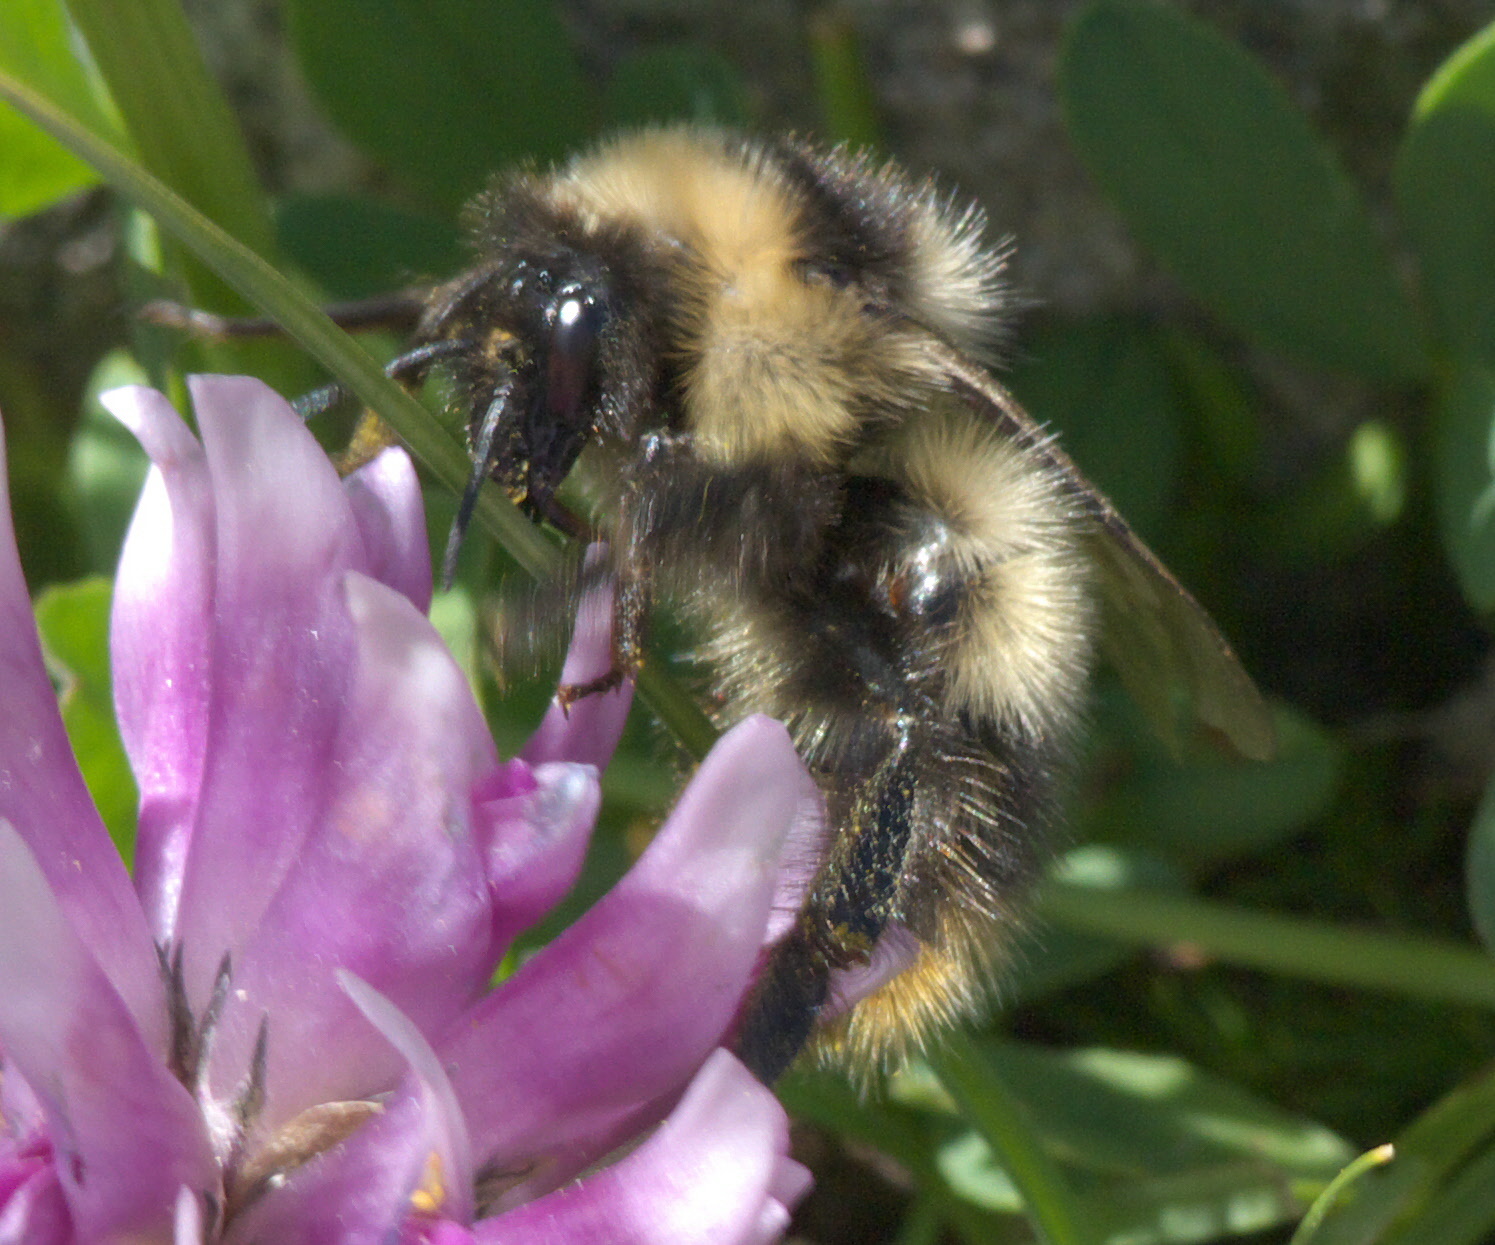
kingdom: Animalia
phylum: Arthropoda
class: Insecta
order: Hymenoptera
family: Apidae
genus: Bombus
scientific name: Bombus kirbiellus
